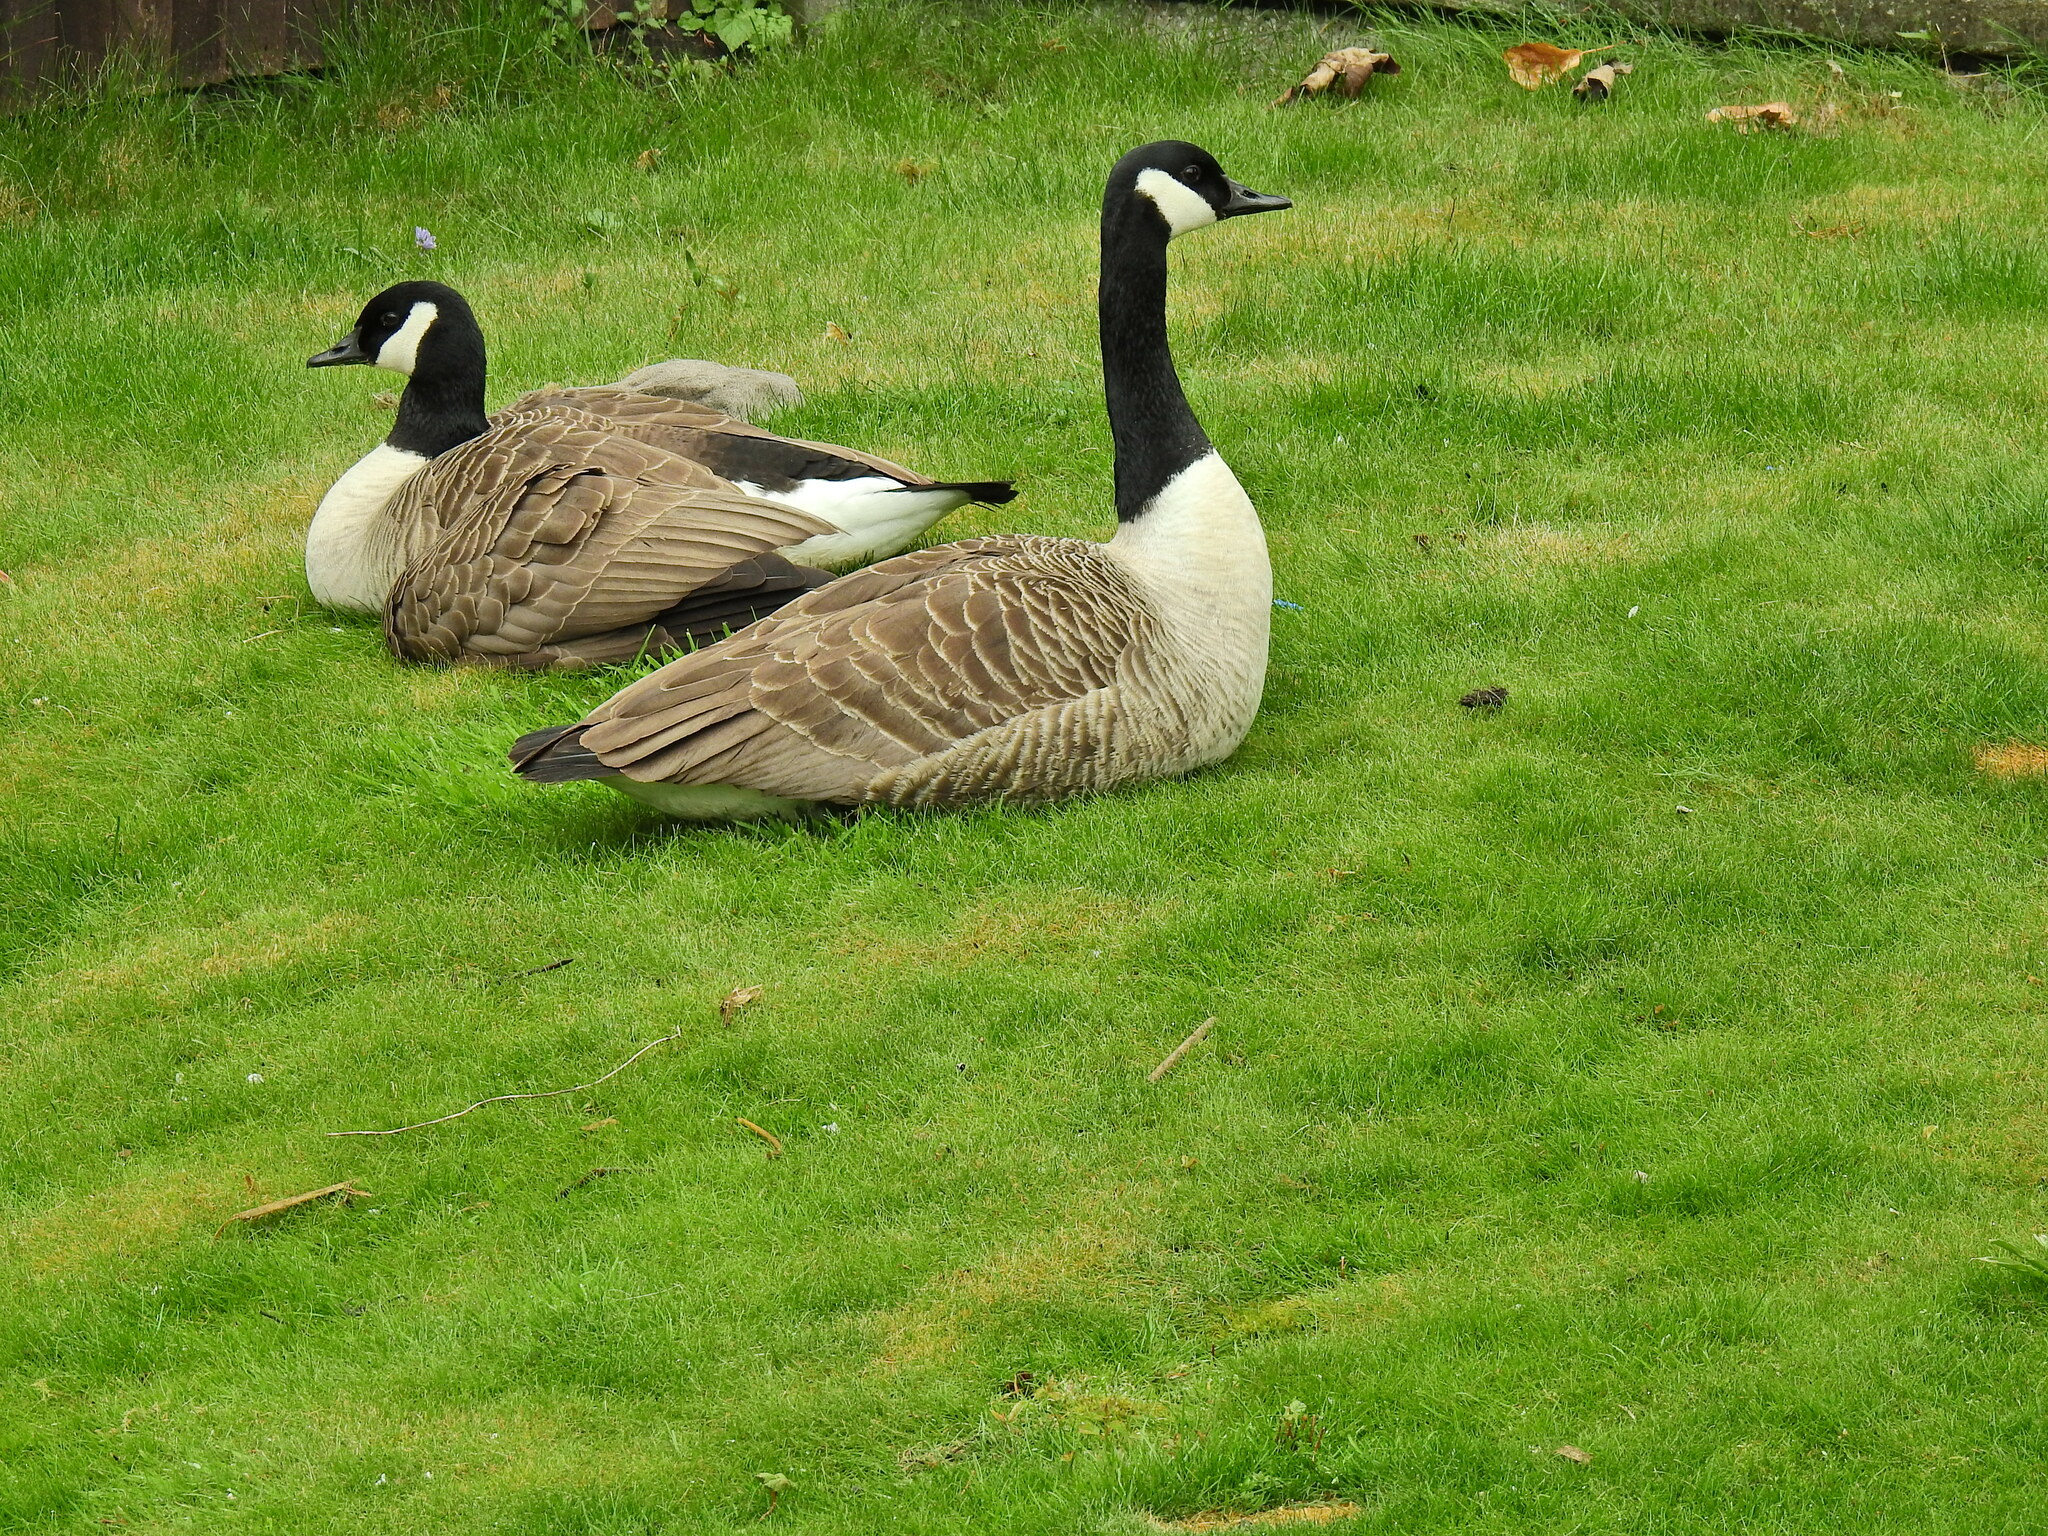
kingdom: Animalia
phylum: Chordata
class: Aves
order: Anseriformes
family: Anatidae
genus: Branta
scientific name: Branta canadensis
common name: Canada goose
